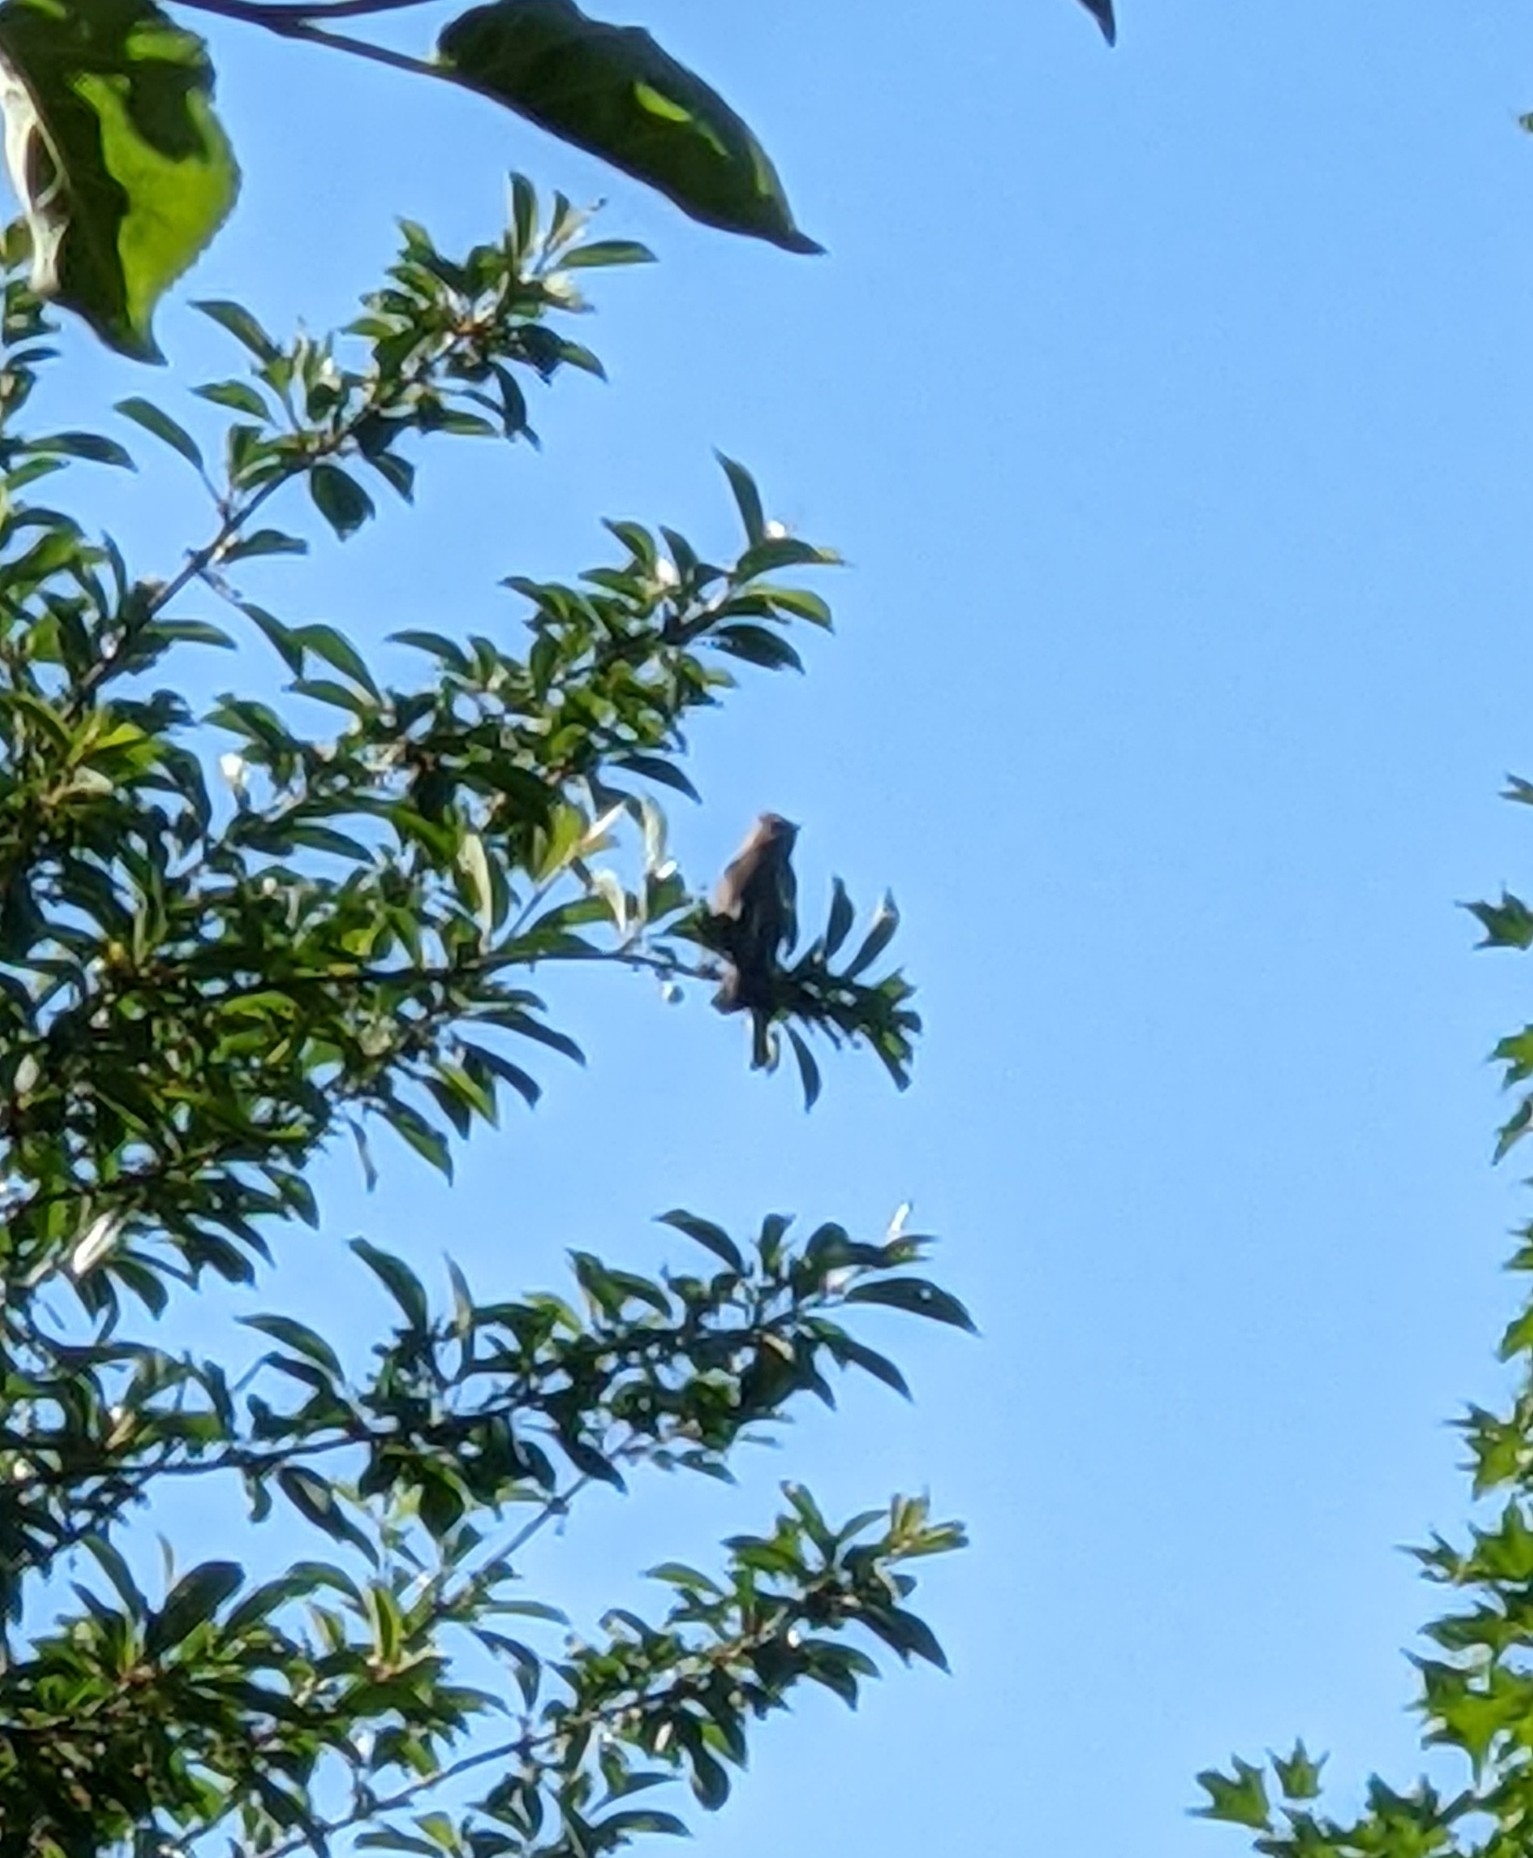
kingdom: Animalia
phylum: Chordata
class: Aves
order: Passeriformes
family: Bombycillidae
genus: Bombycilla
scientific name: Bombycilla cedrorum
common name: Cedar waxwing
